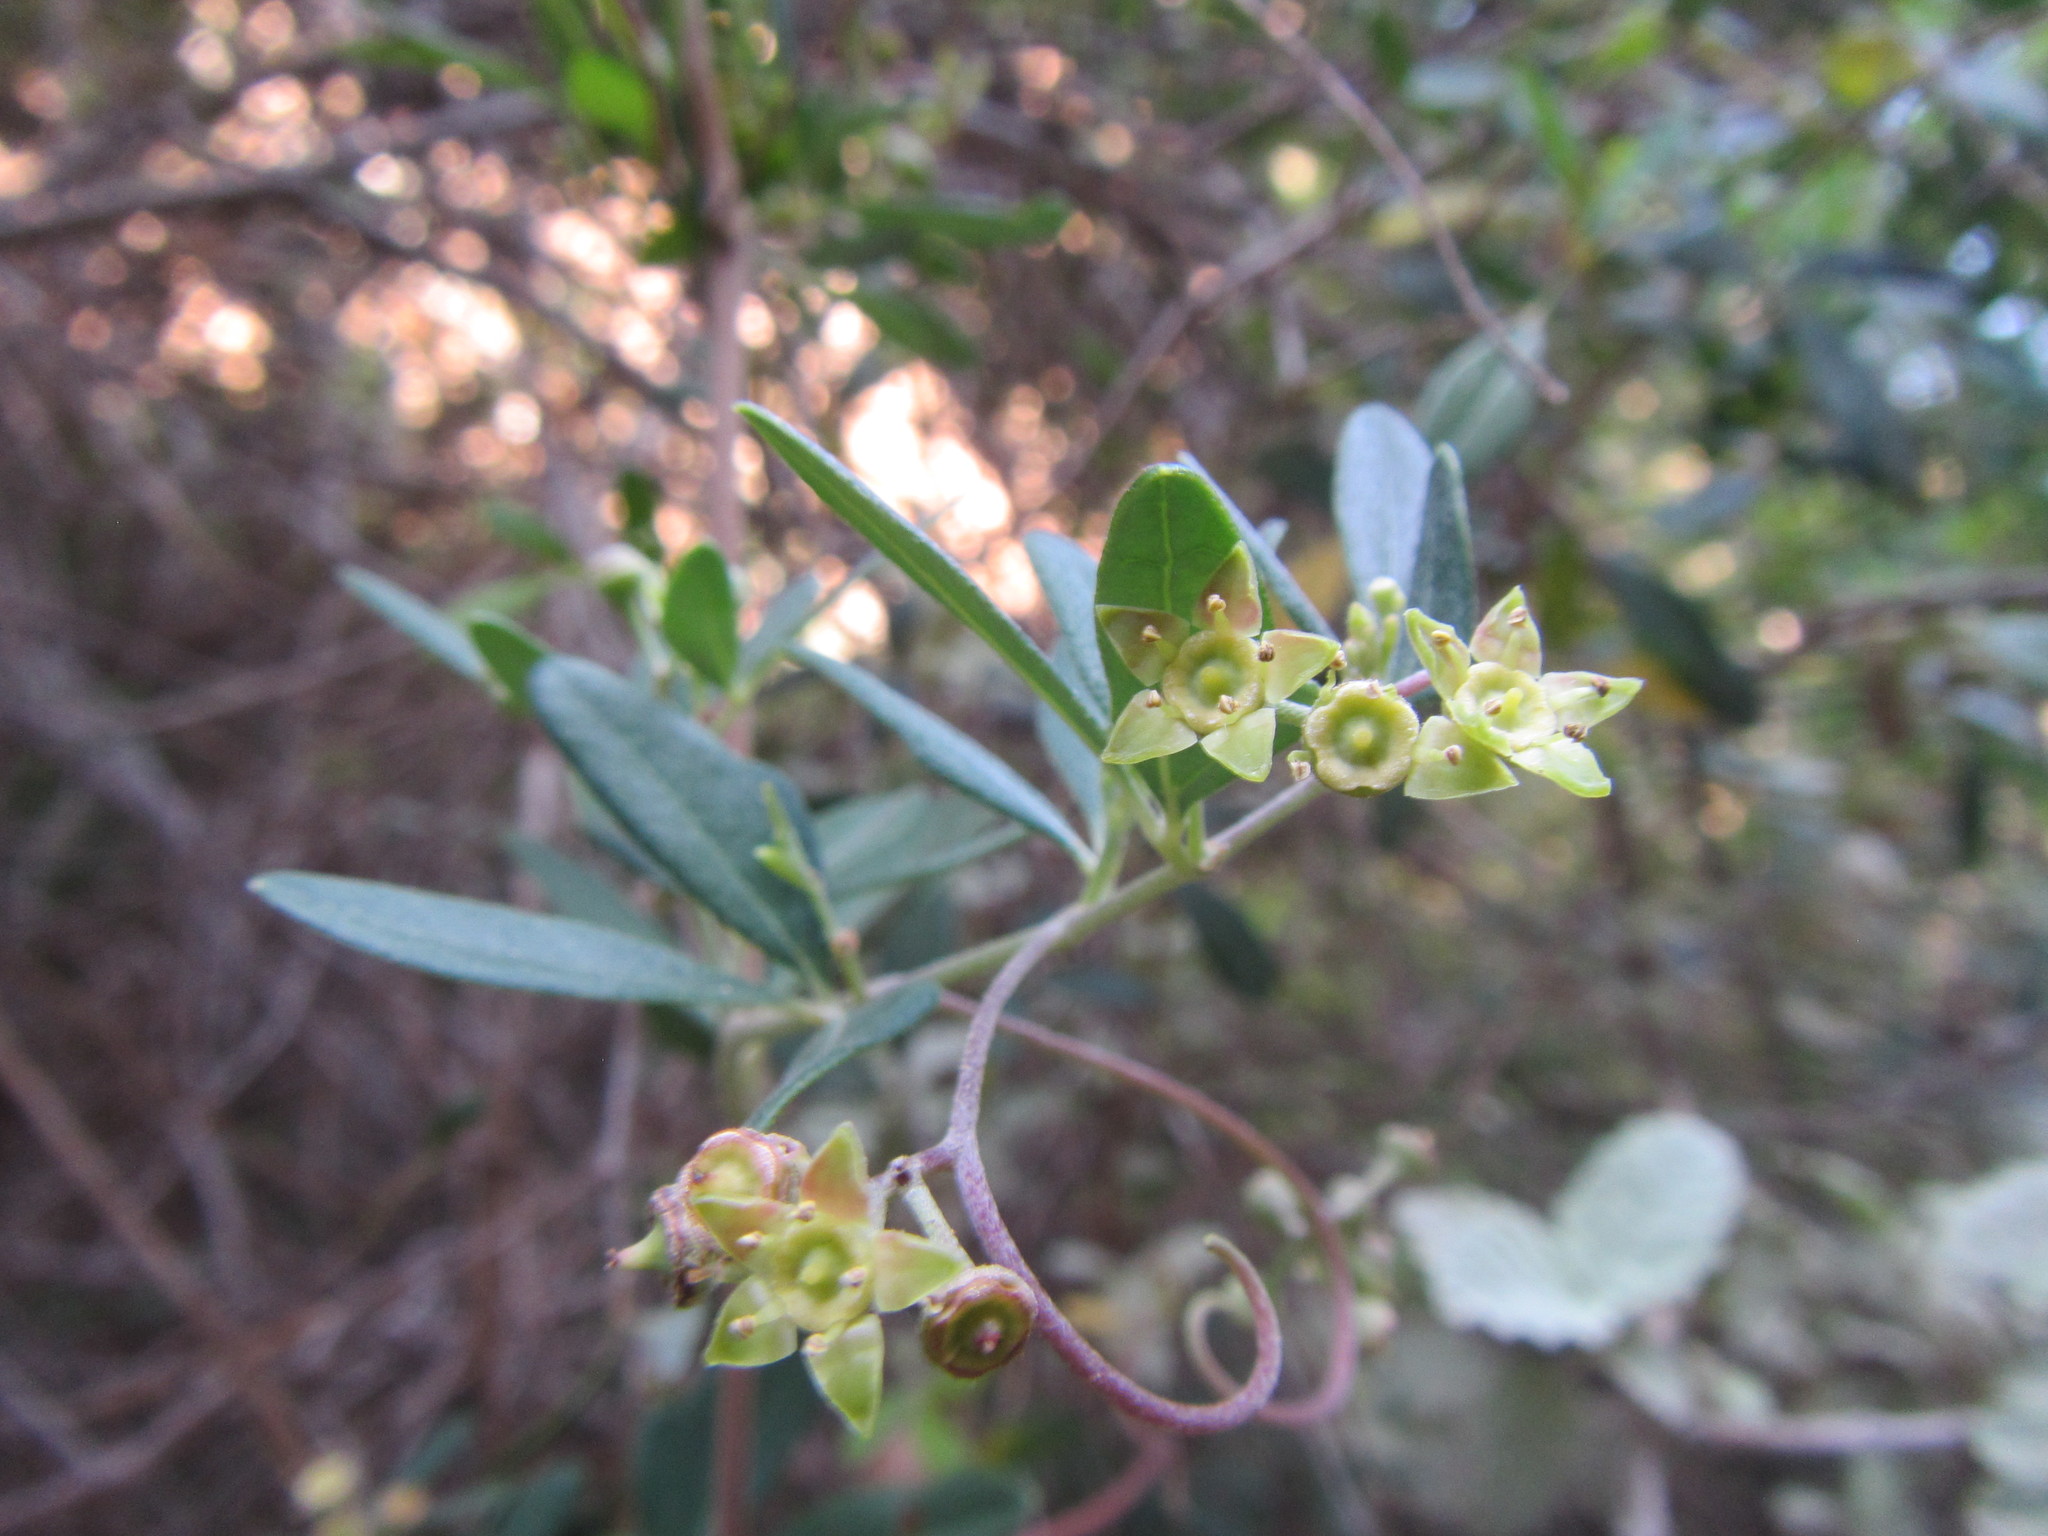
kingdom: Plantae
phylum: Tracheophyta
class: Magnoliopsida
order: Vitales
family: Vitaceae
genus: Rhoicissus
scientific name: Rhoicissus digitata
